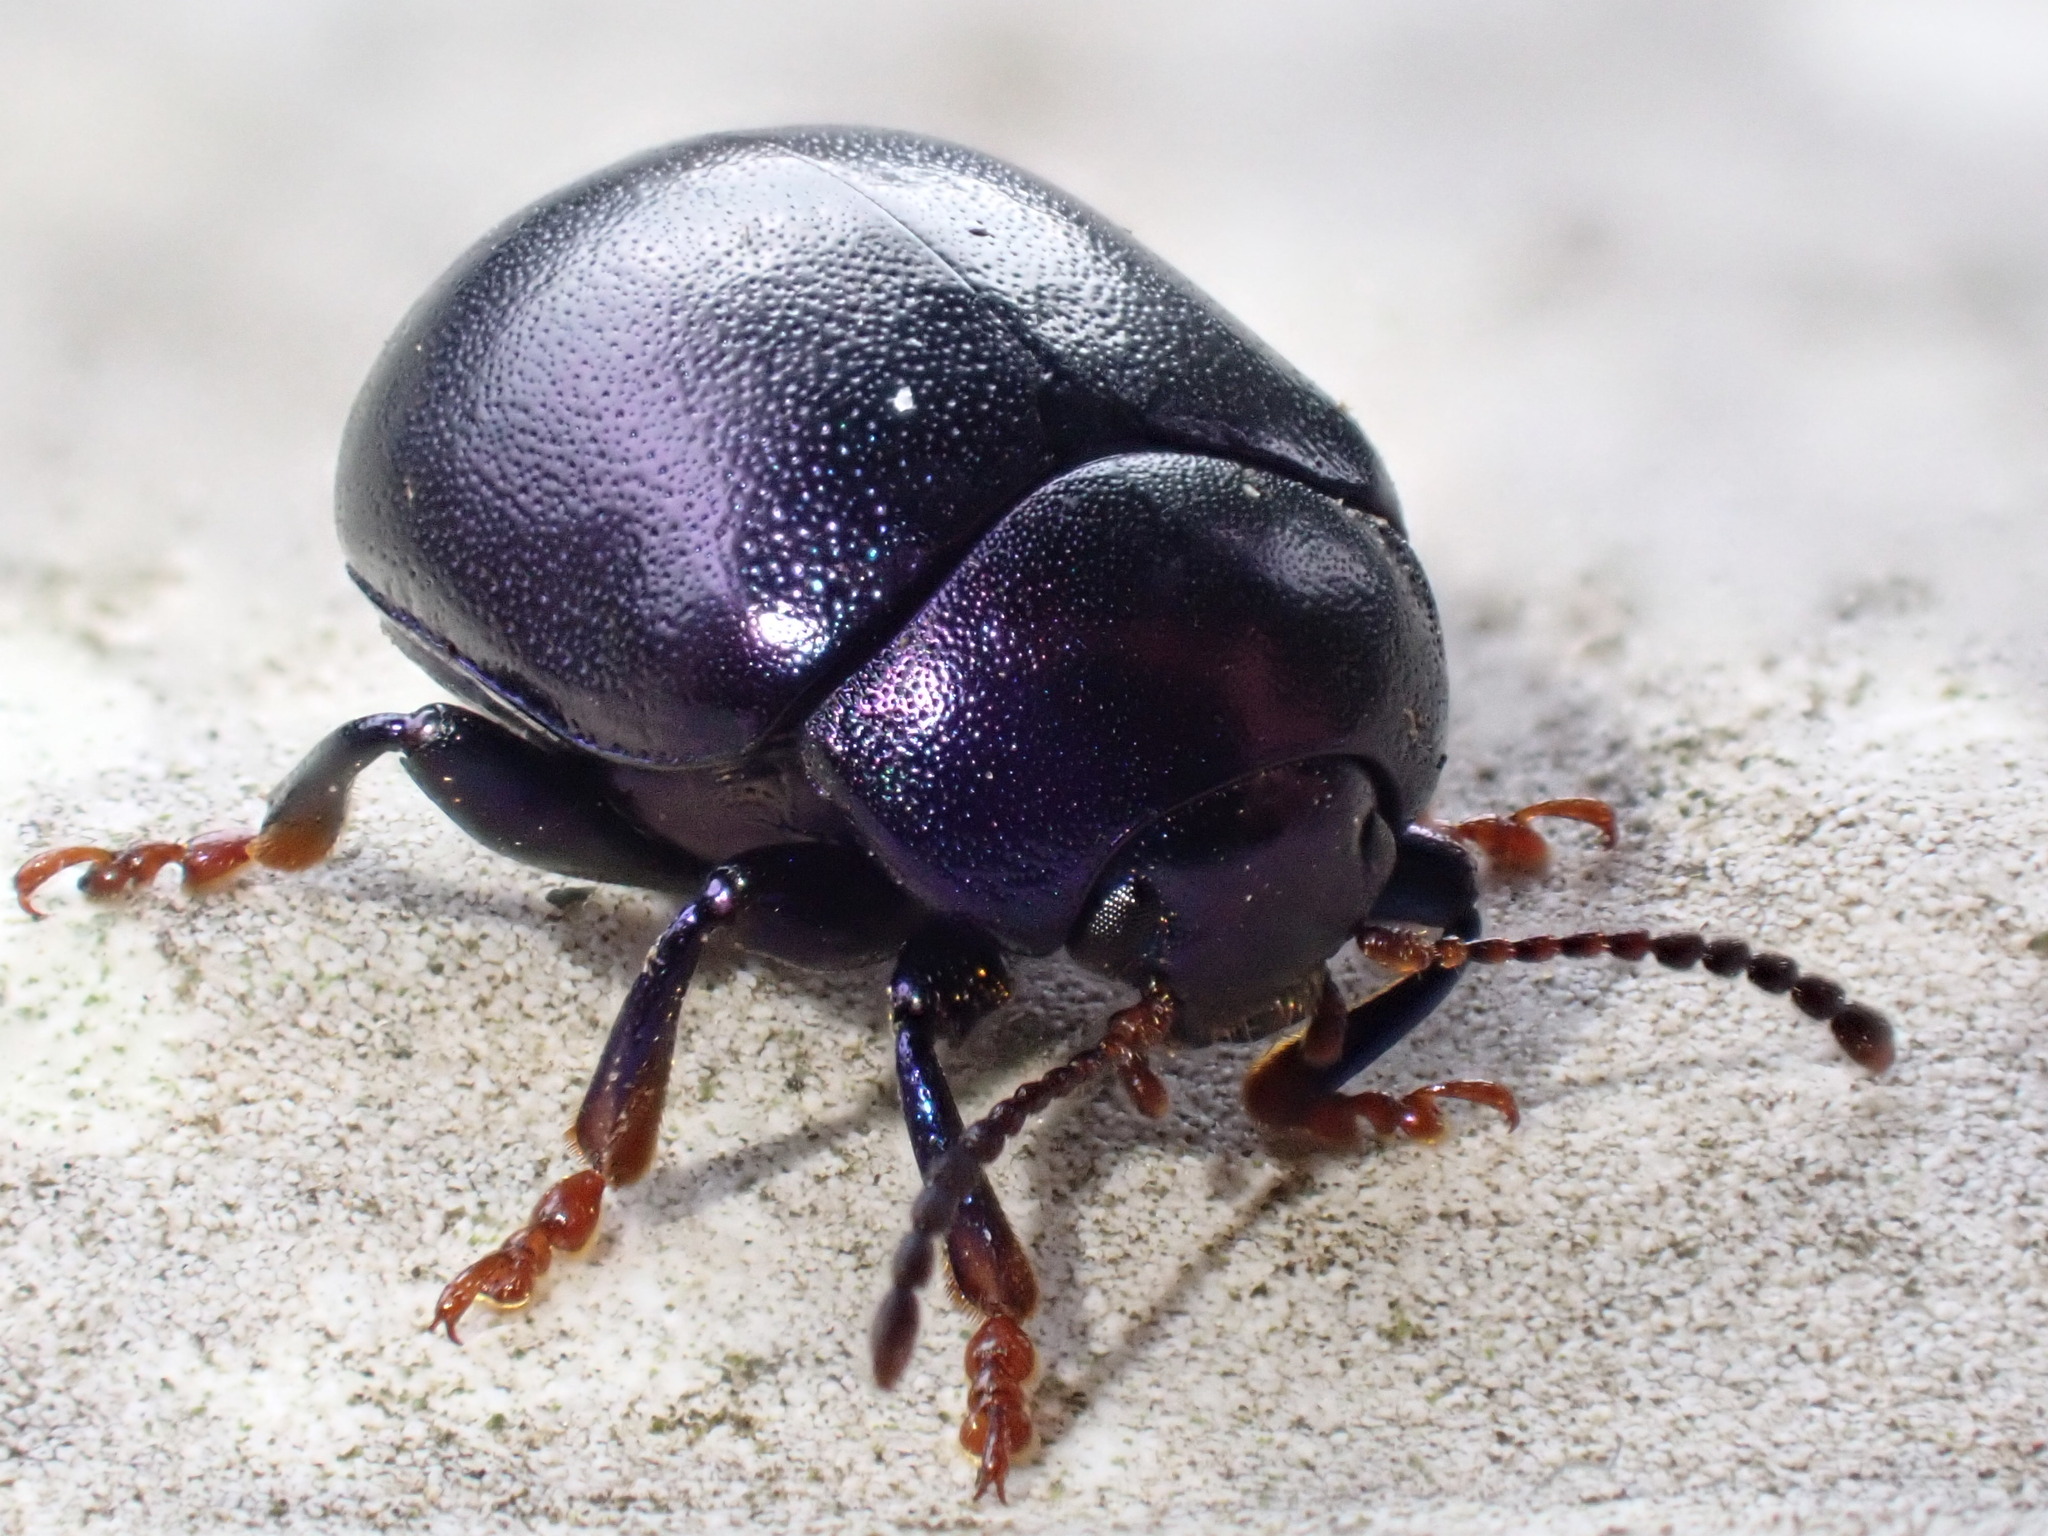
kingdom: Animalia
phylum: Arthropoda
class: Insecta
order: Coleoptera
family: Chrysomelidae
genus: Chrysolina
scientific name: Chrysolina sturmi
